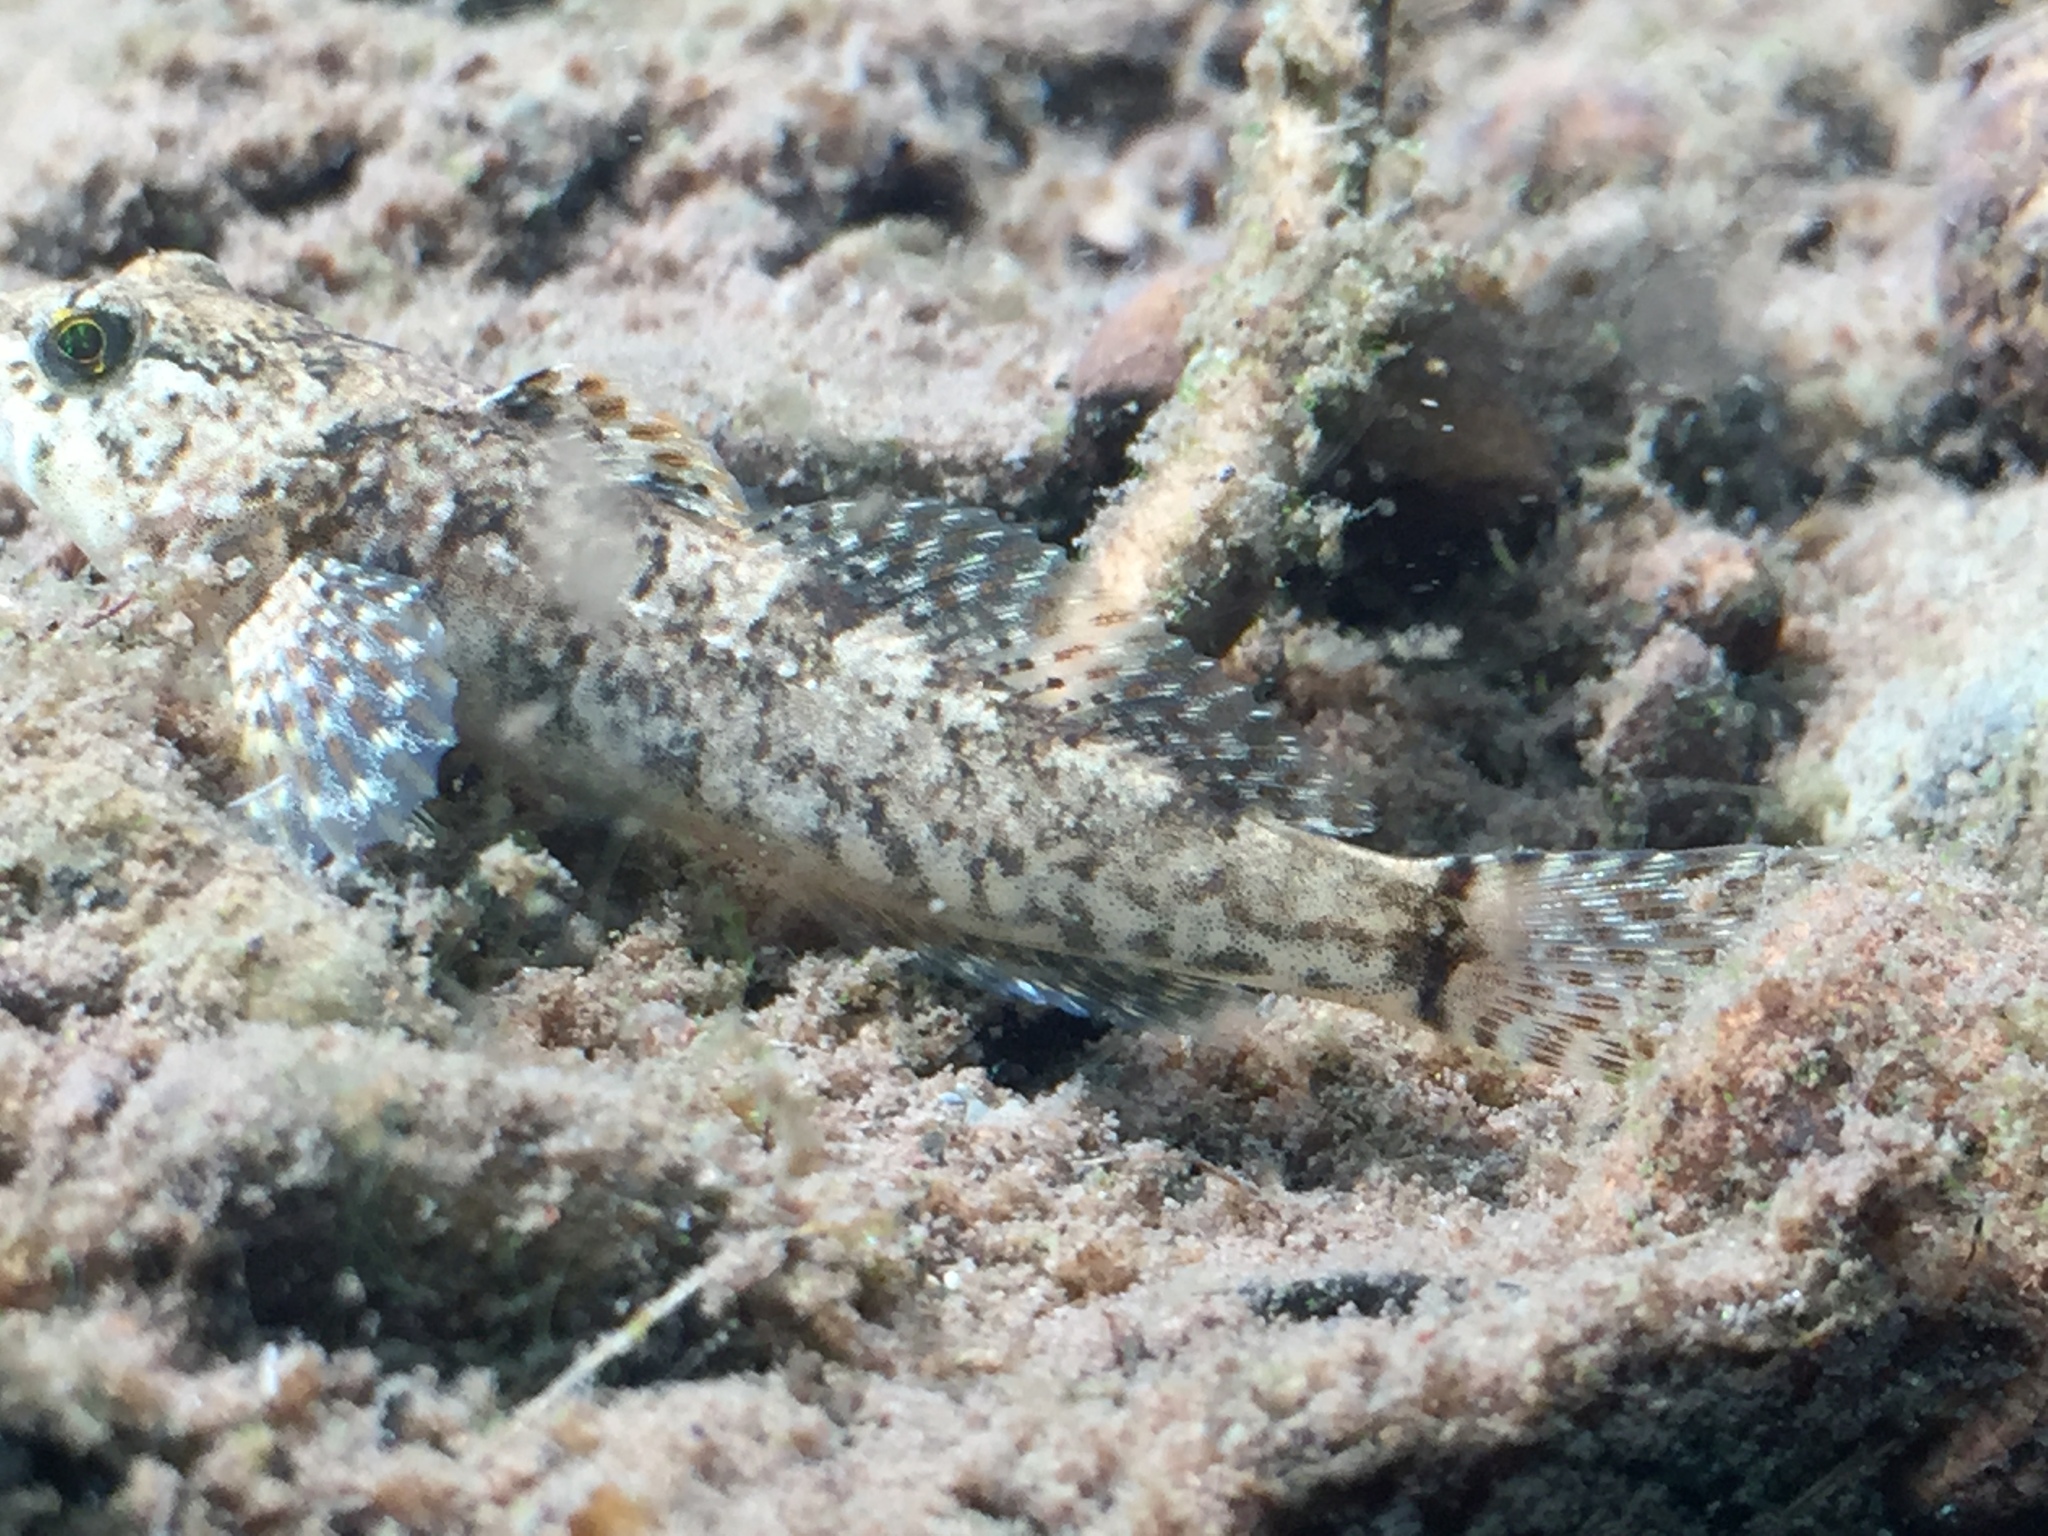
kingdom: Animalia
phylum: Chordata
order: Scorpaeniformes
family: Cottidae
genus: Cottus
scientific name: Cottus beldingii
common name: Paiute sculpin
